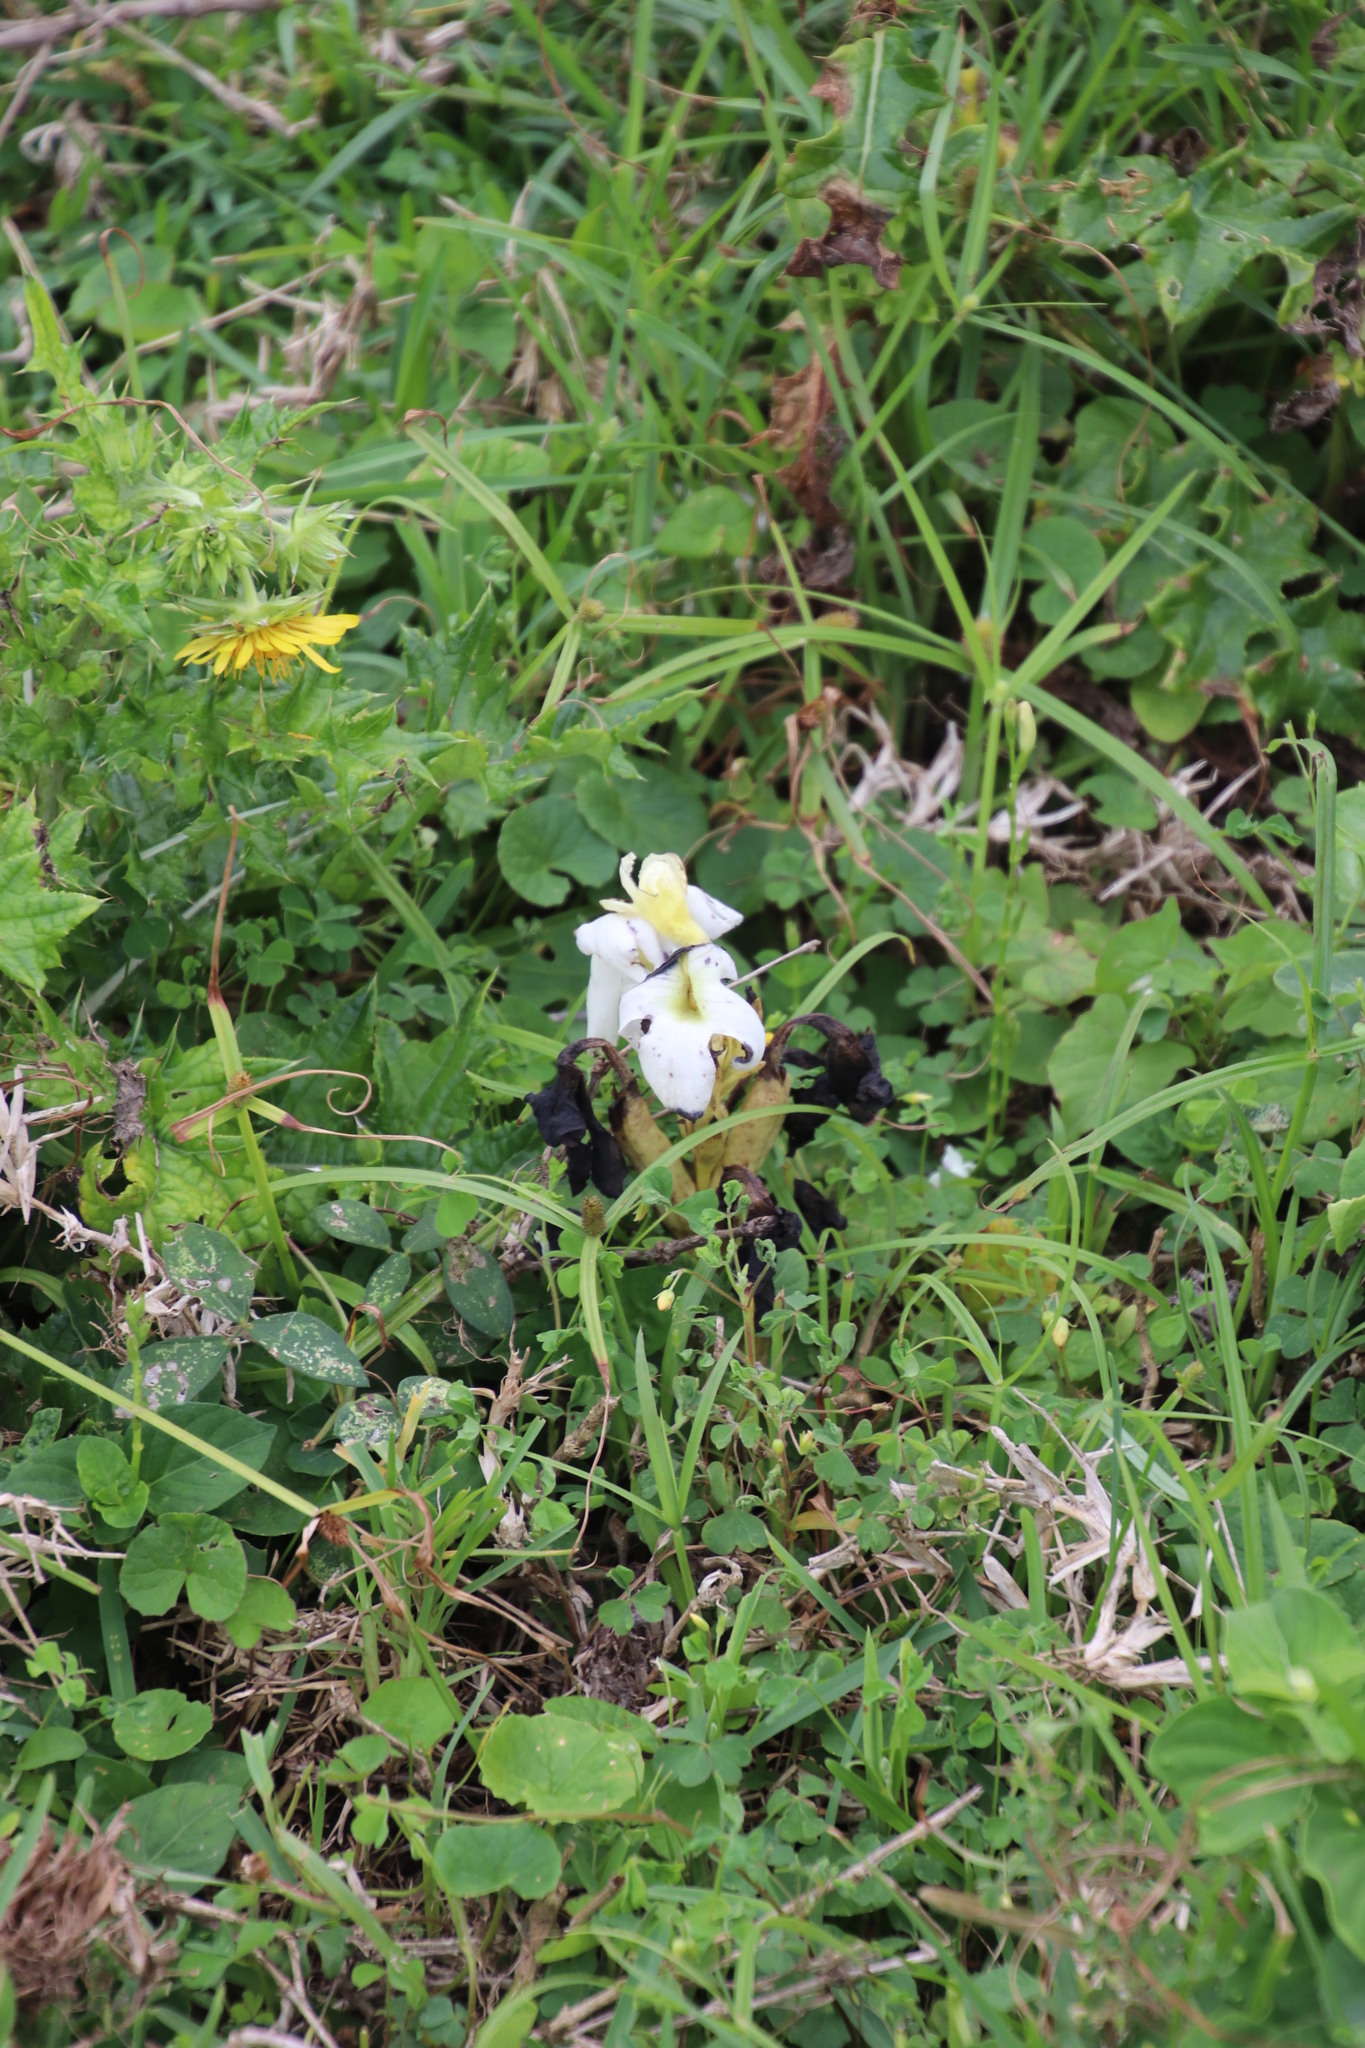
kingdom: Plantae
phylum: Tracheophyta
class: Magnoliopsida
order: Lamiales
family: Orobanchaceae
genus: Harveya
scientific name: Harveya speciosa
